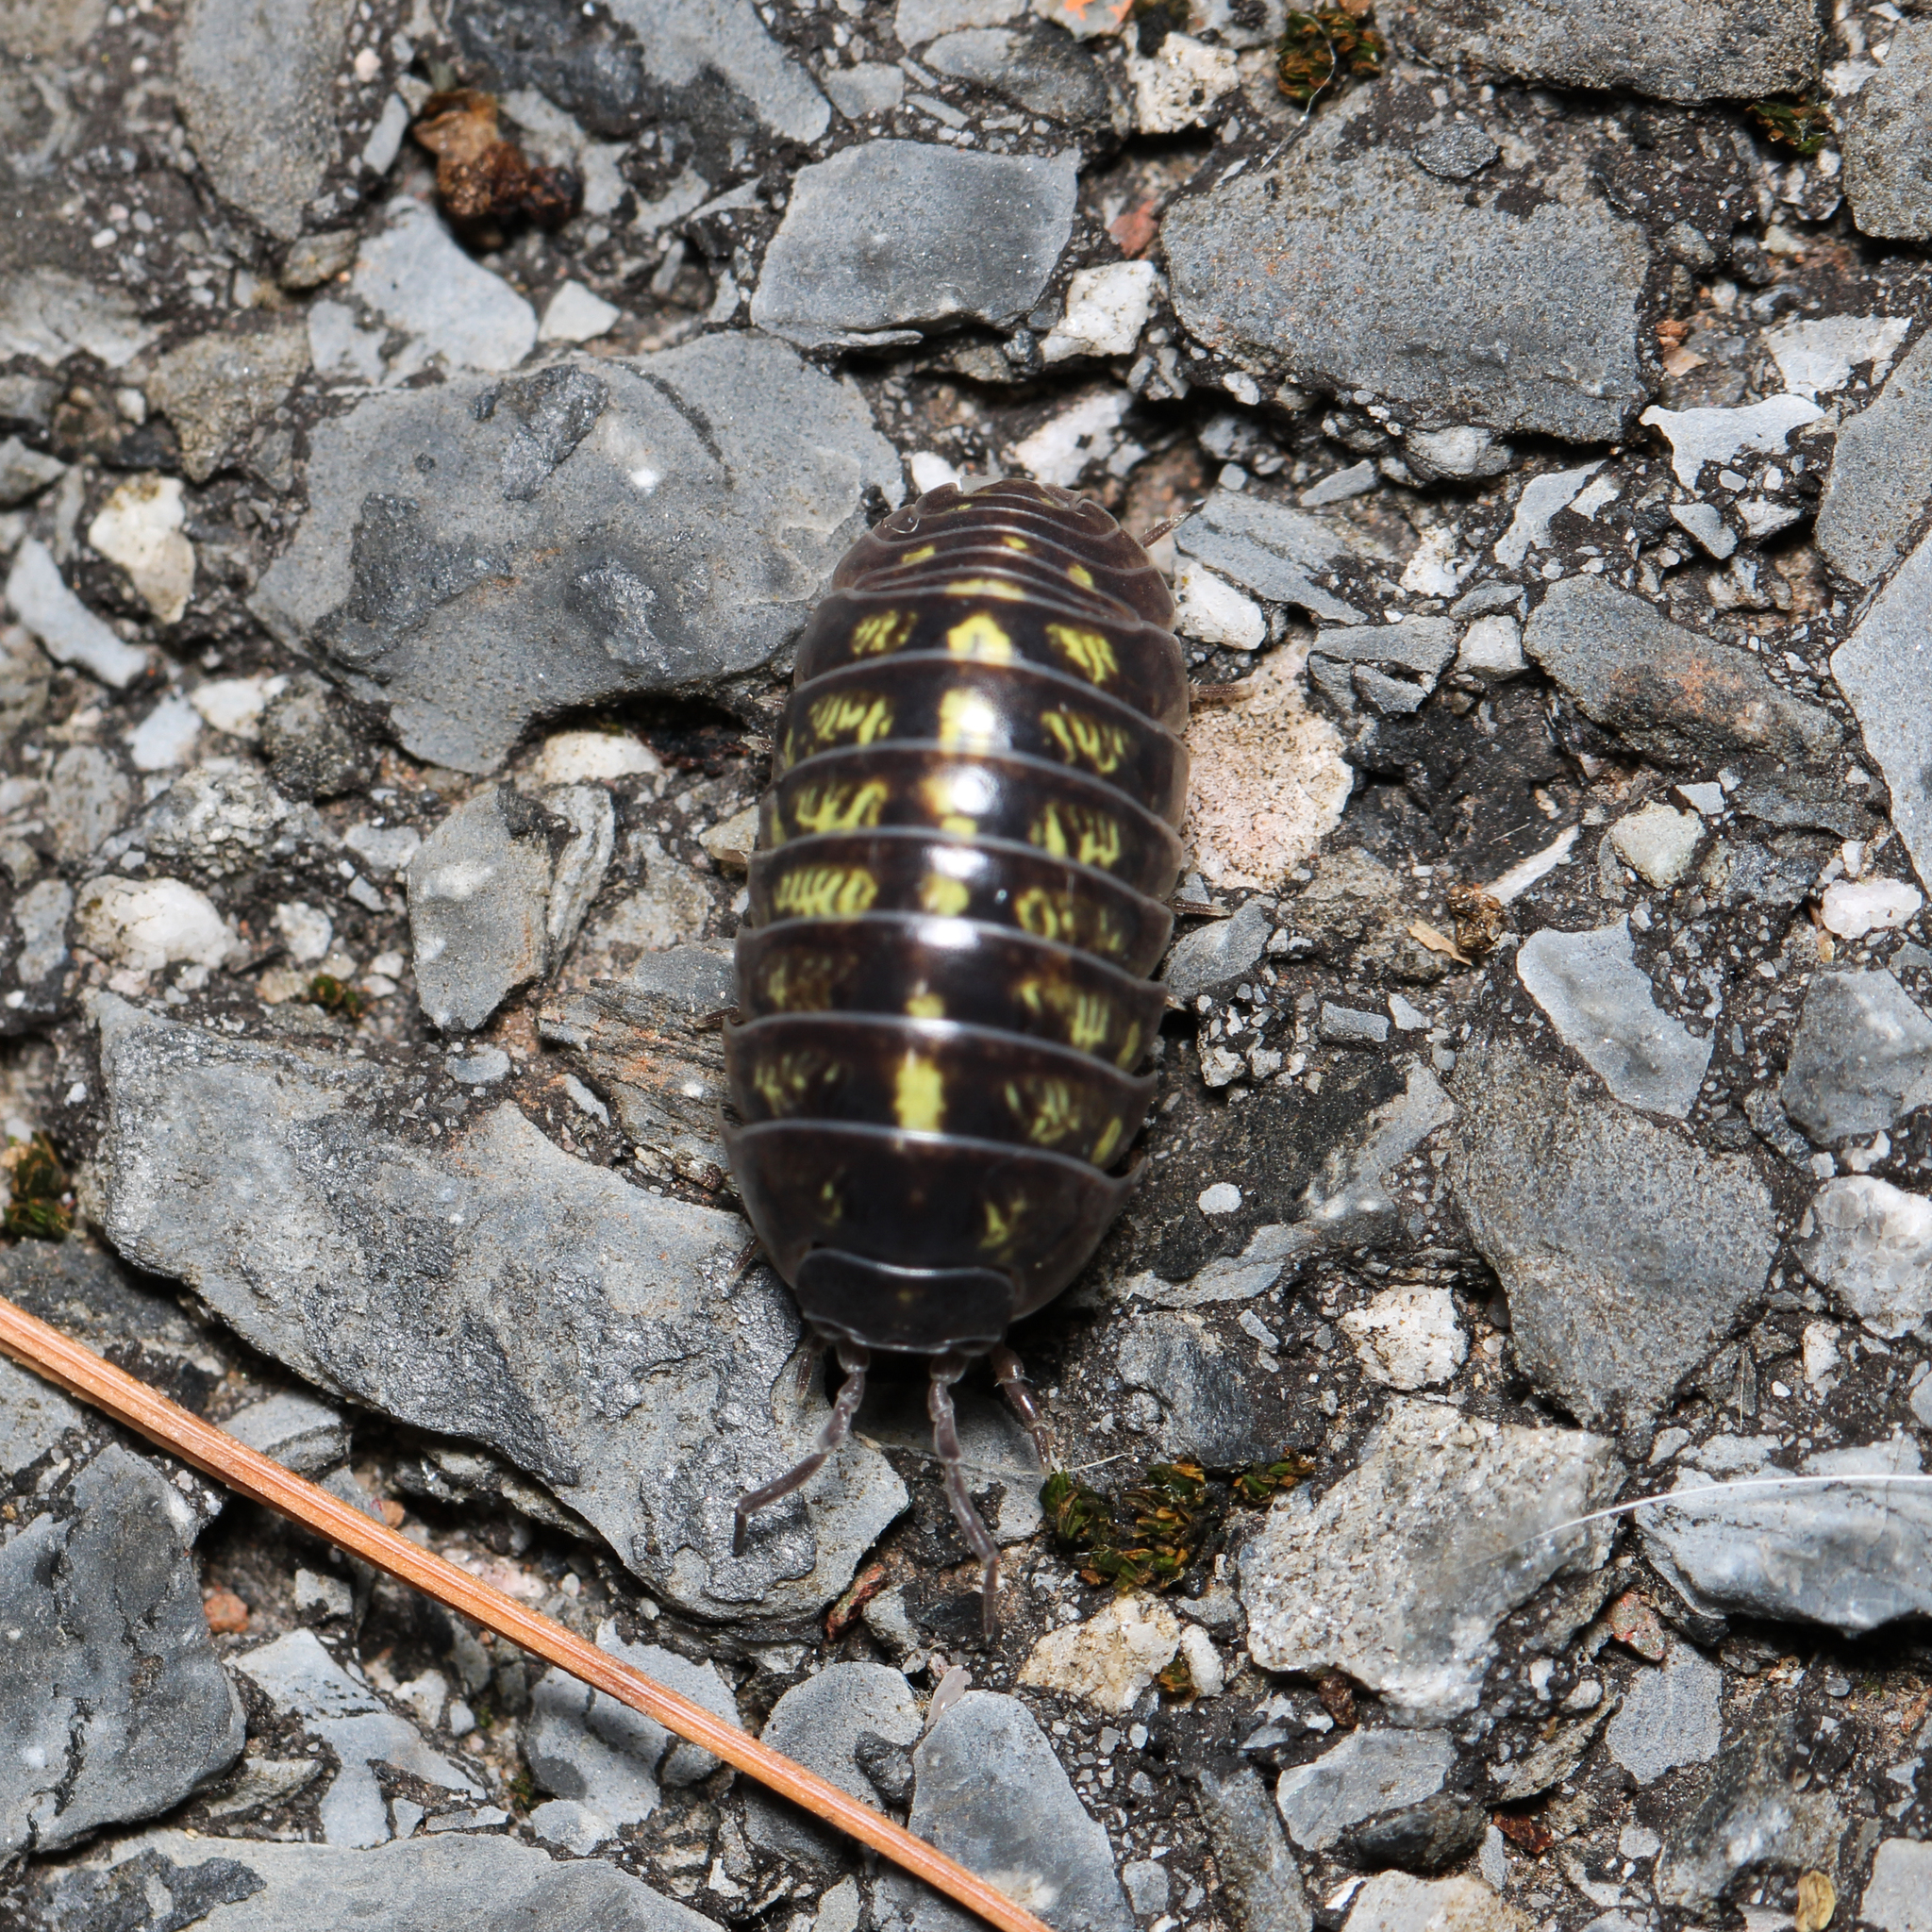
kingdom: Animalia
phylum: Arthropoda
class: Malacostraca
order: Isopoda
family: Armadillidiidae
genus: Armadillidium
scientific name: Armadillidium vulgare
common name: Common pill woodlouse
